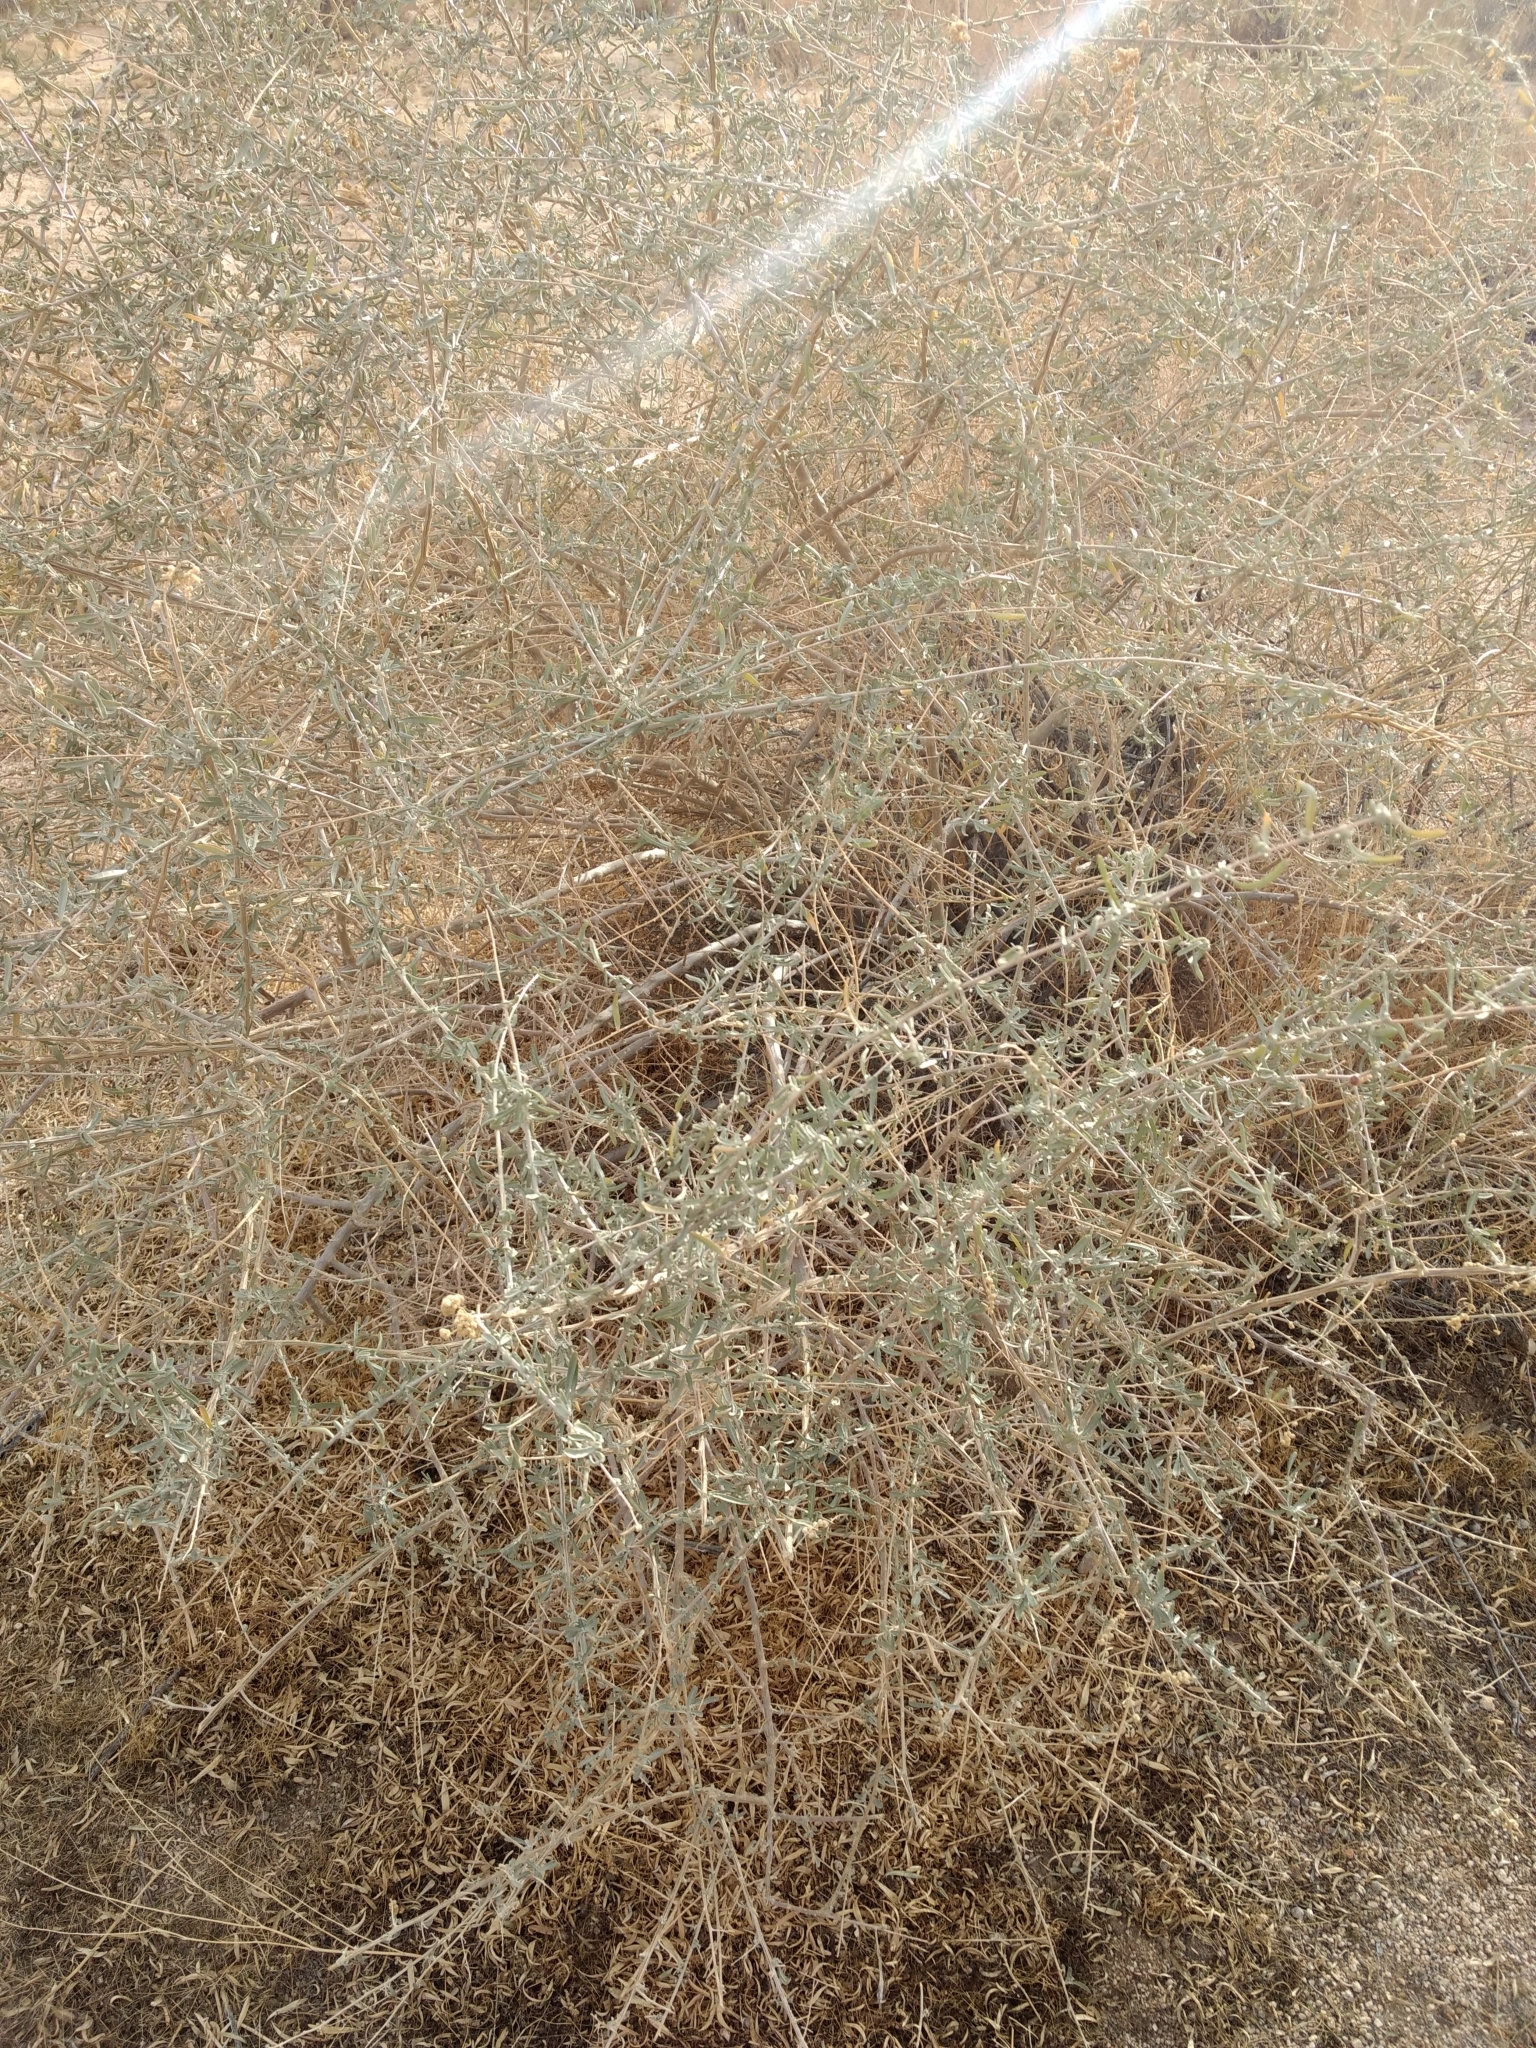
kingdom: Plantae
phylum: Tracheophyta
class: Magnoliopsida
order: Caryophyllales
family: Amaranthaceae
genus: Atriplex
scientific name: Atriplex canescens
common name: Four-wing saltbush
